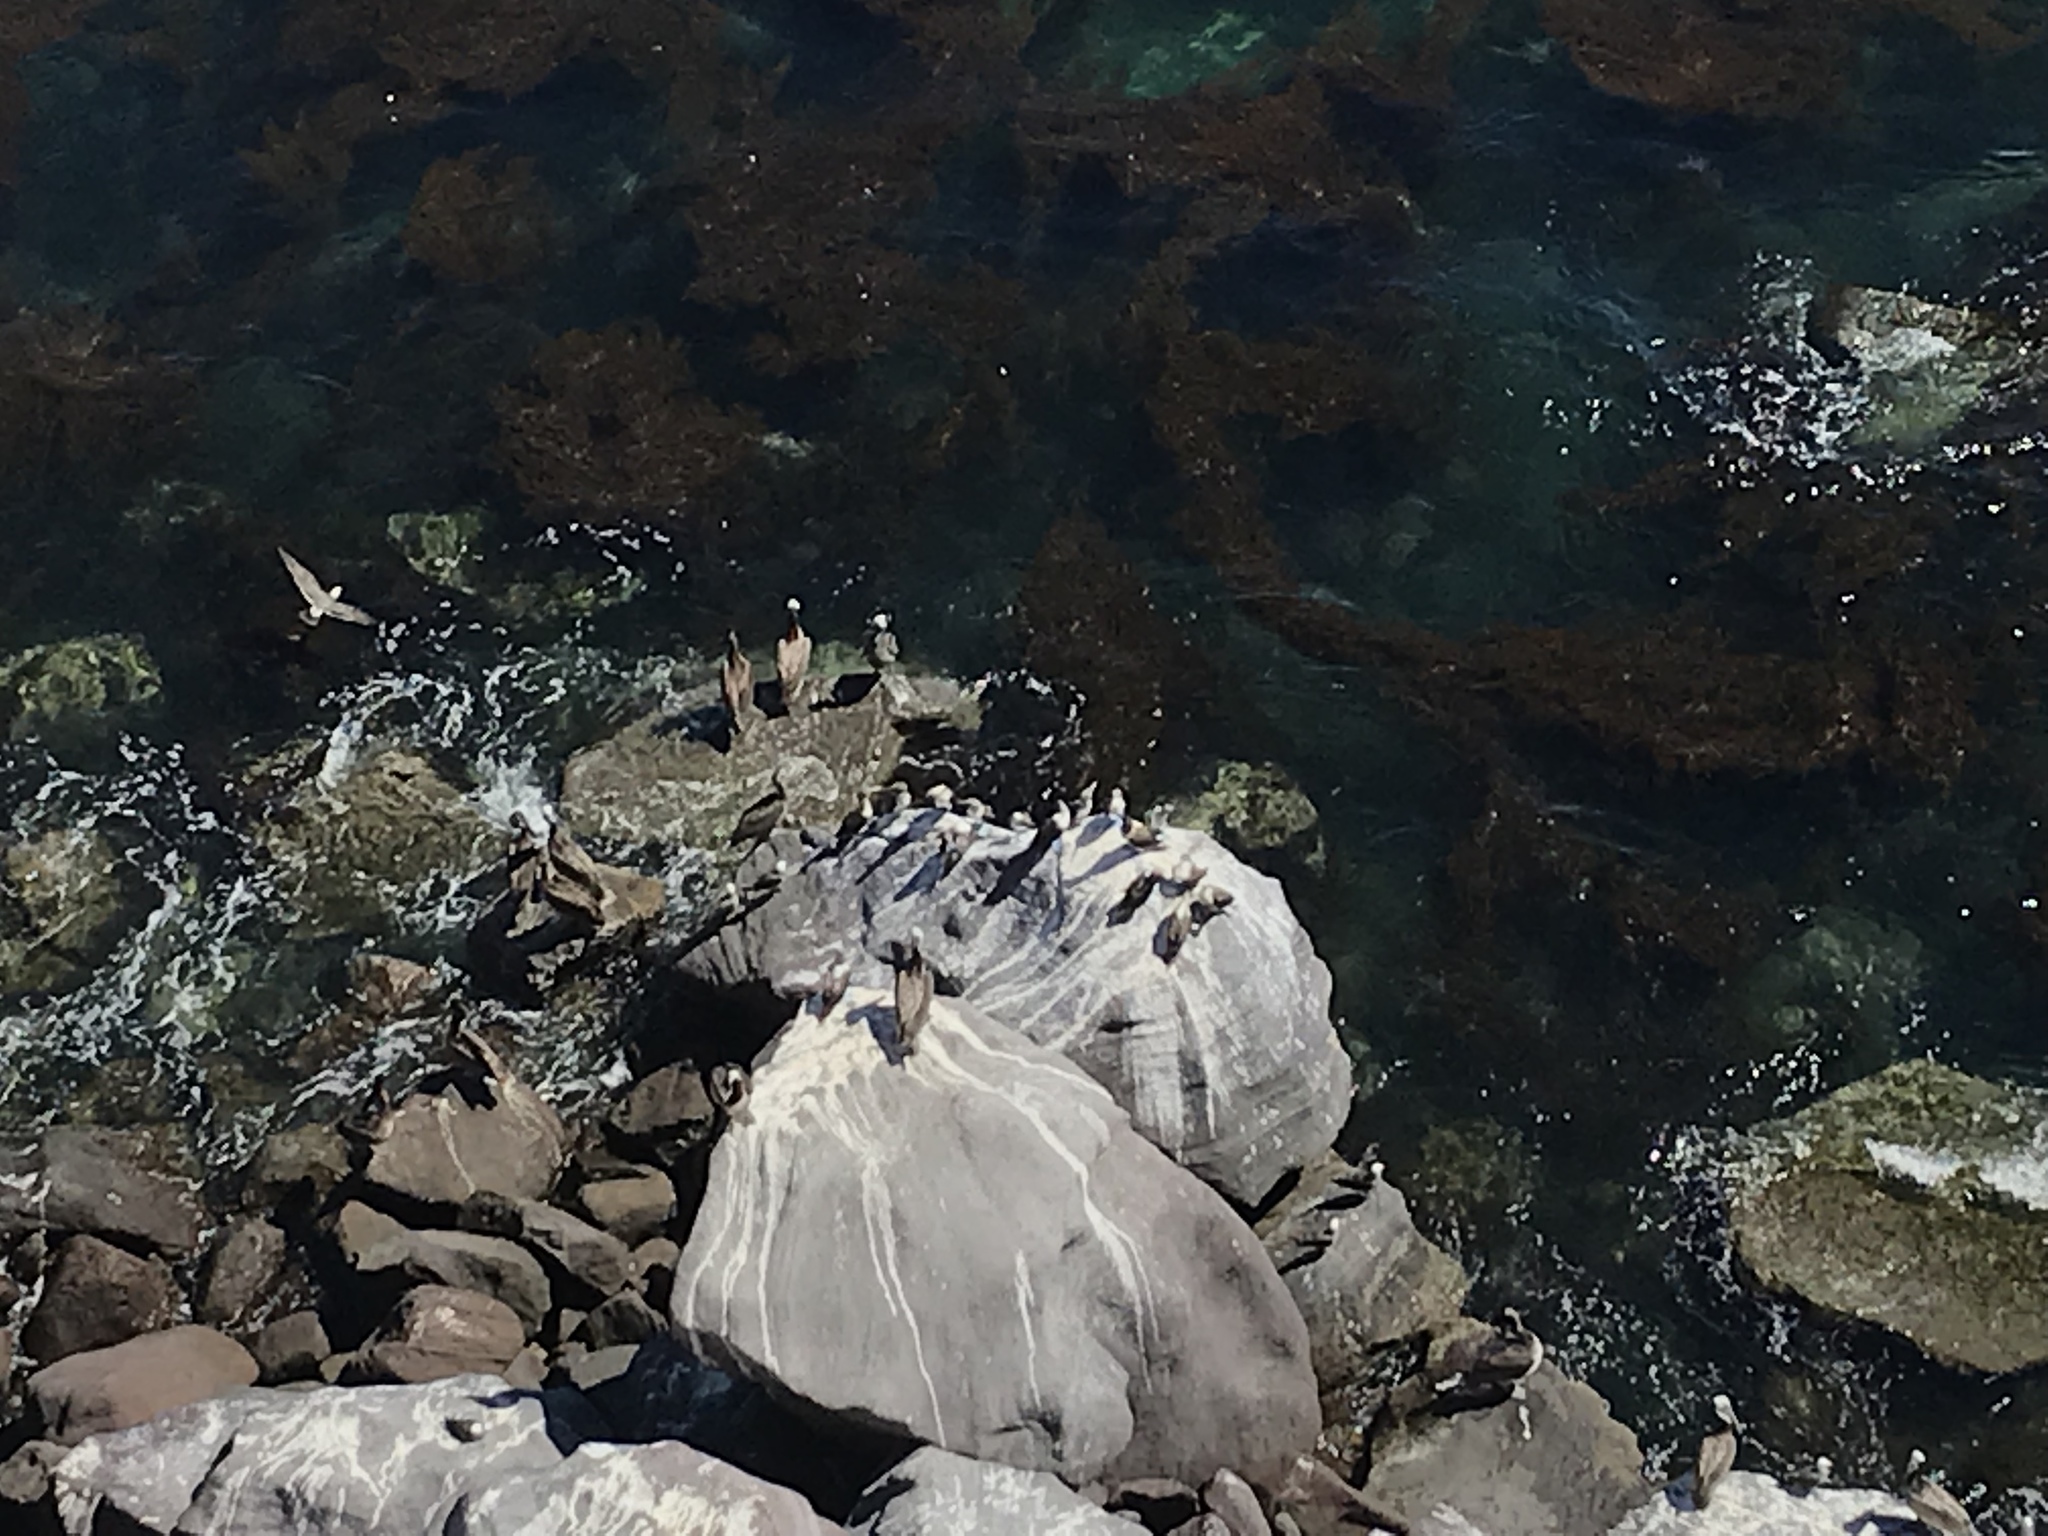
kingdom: Animalia
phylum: Chordata
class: Aves
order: Suliformes
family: Sulidae
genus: Sula
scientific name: Sula nebouxii
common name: Blue-footed booby
